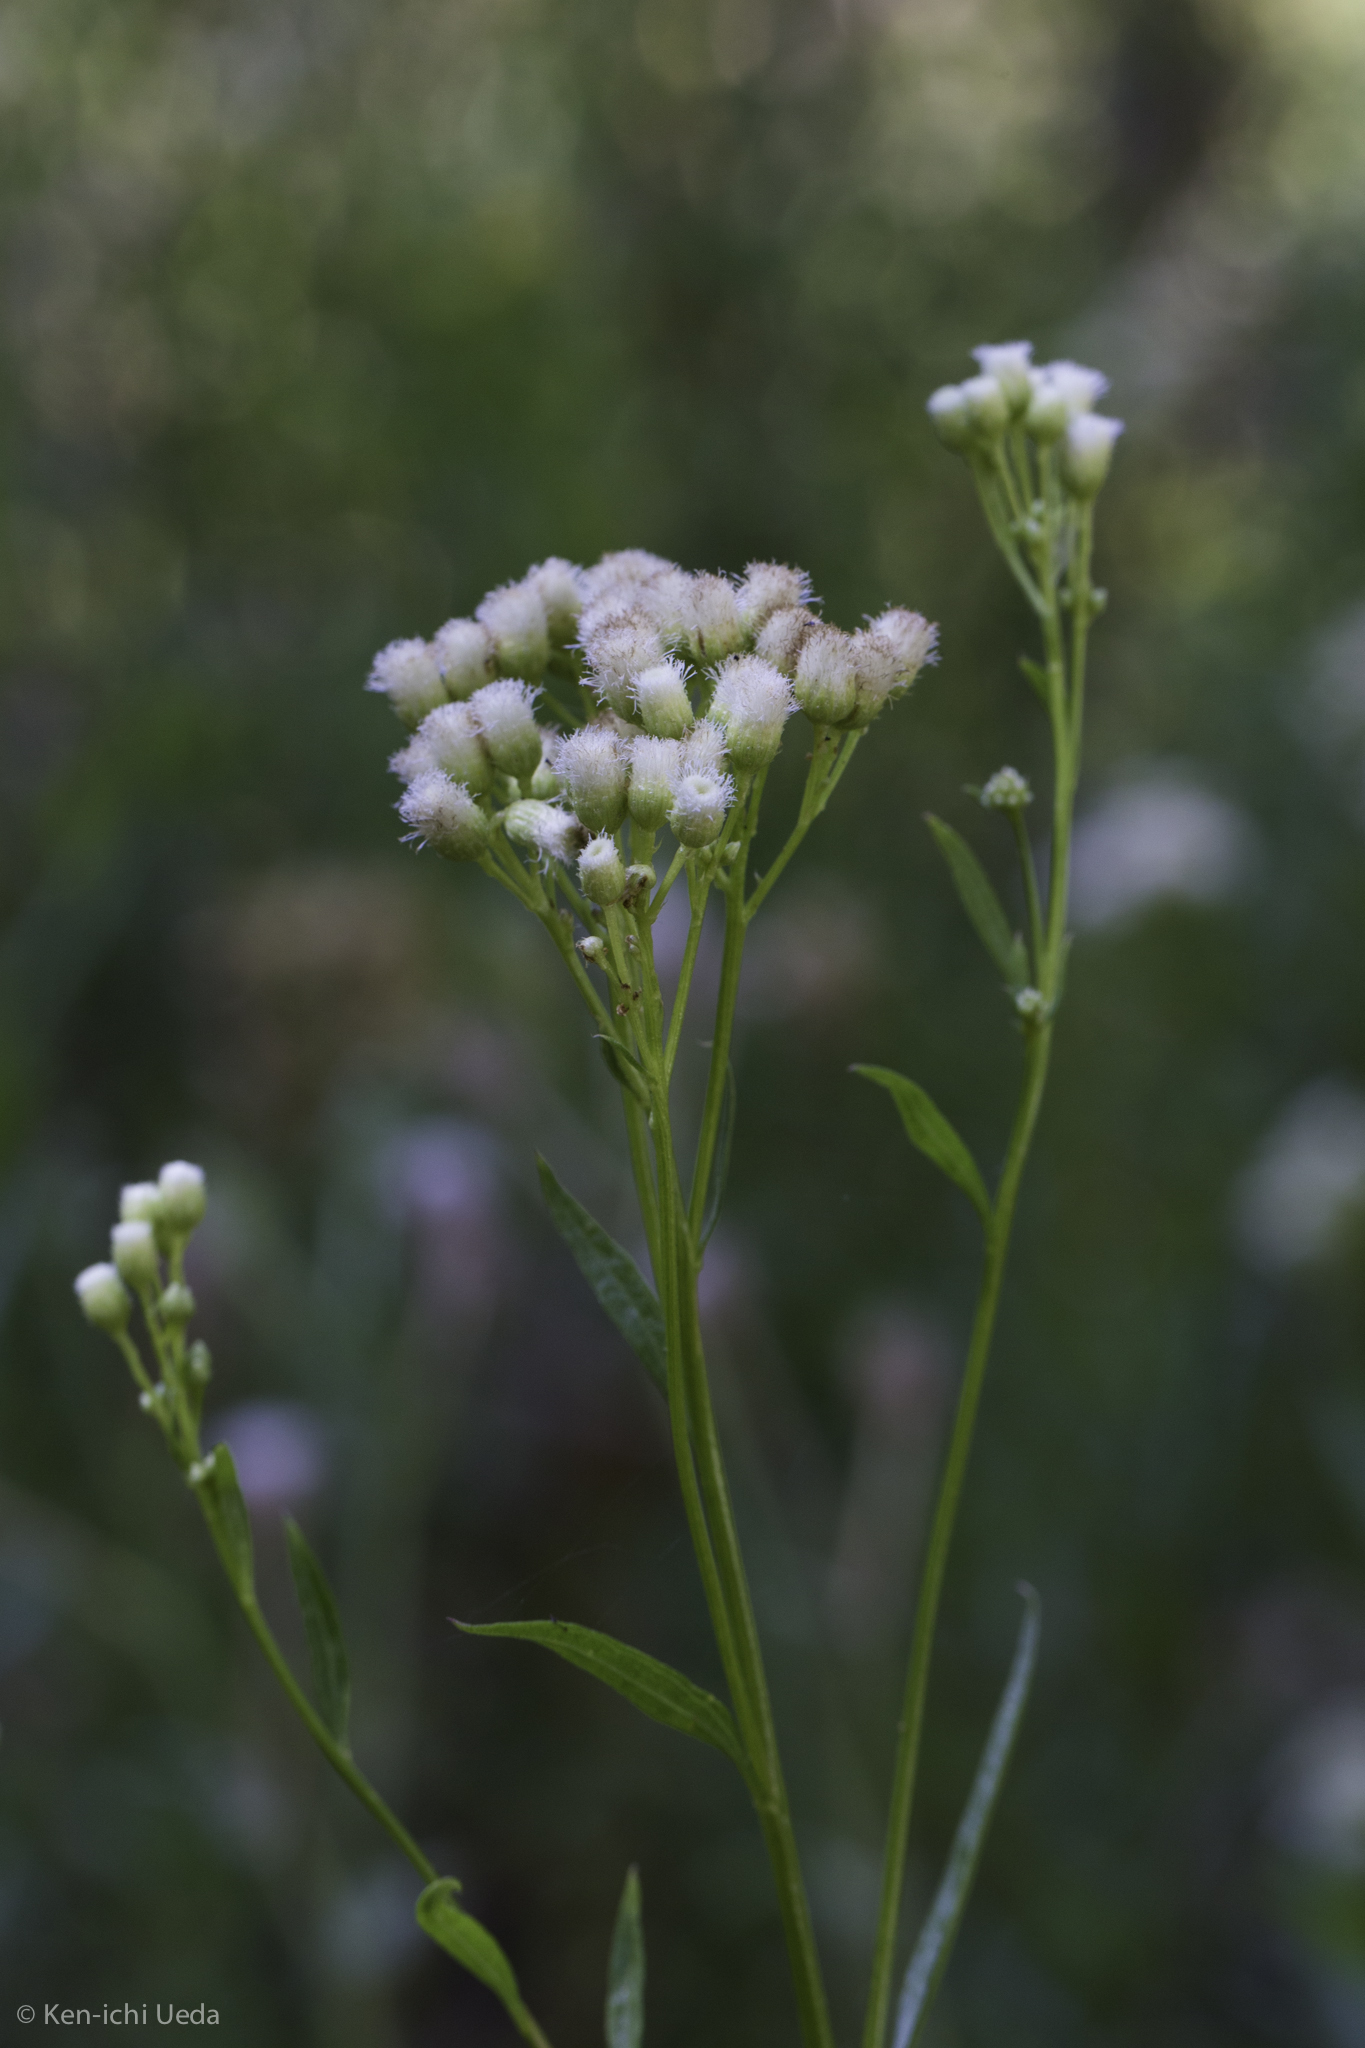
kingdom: Plantae
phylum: Tracheophyta
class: Magnoliopsida
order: Asterales
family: Asteraceae
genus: Baccharis
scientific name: Baccharis glutinosa
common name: Saltmarsh baccharis
